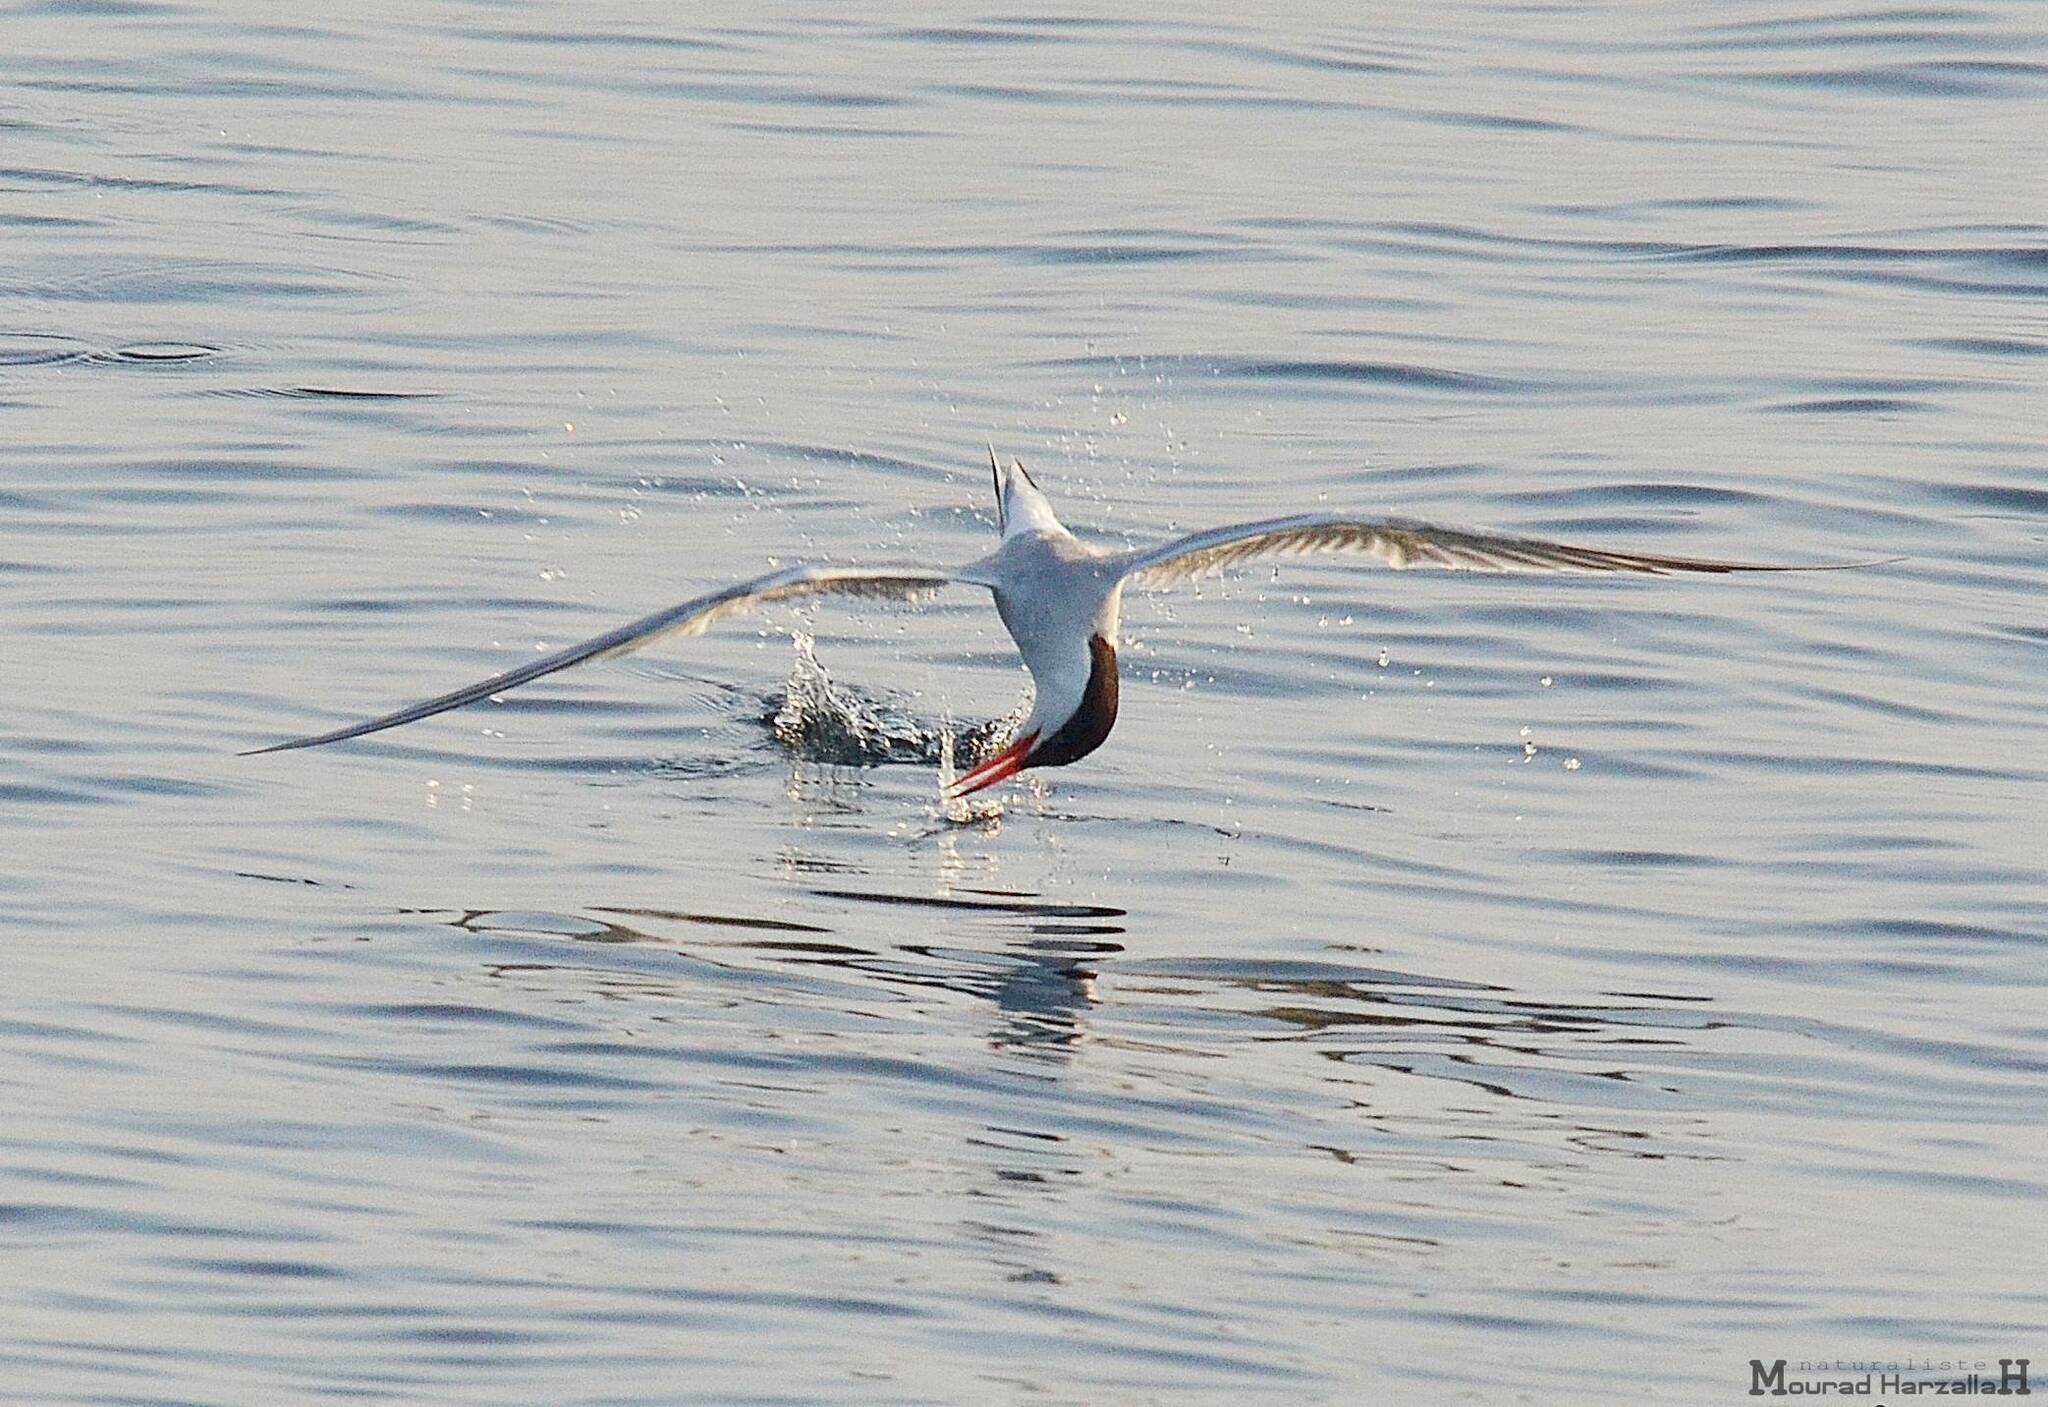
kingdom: Animalia
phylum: Chordata
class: Aves
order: Charadriiformes
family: Laridae
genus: Sterna
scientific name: Sterna hirundo
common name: Common tern
